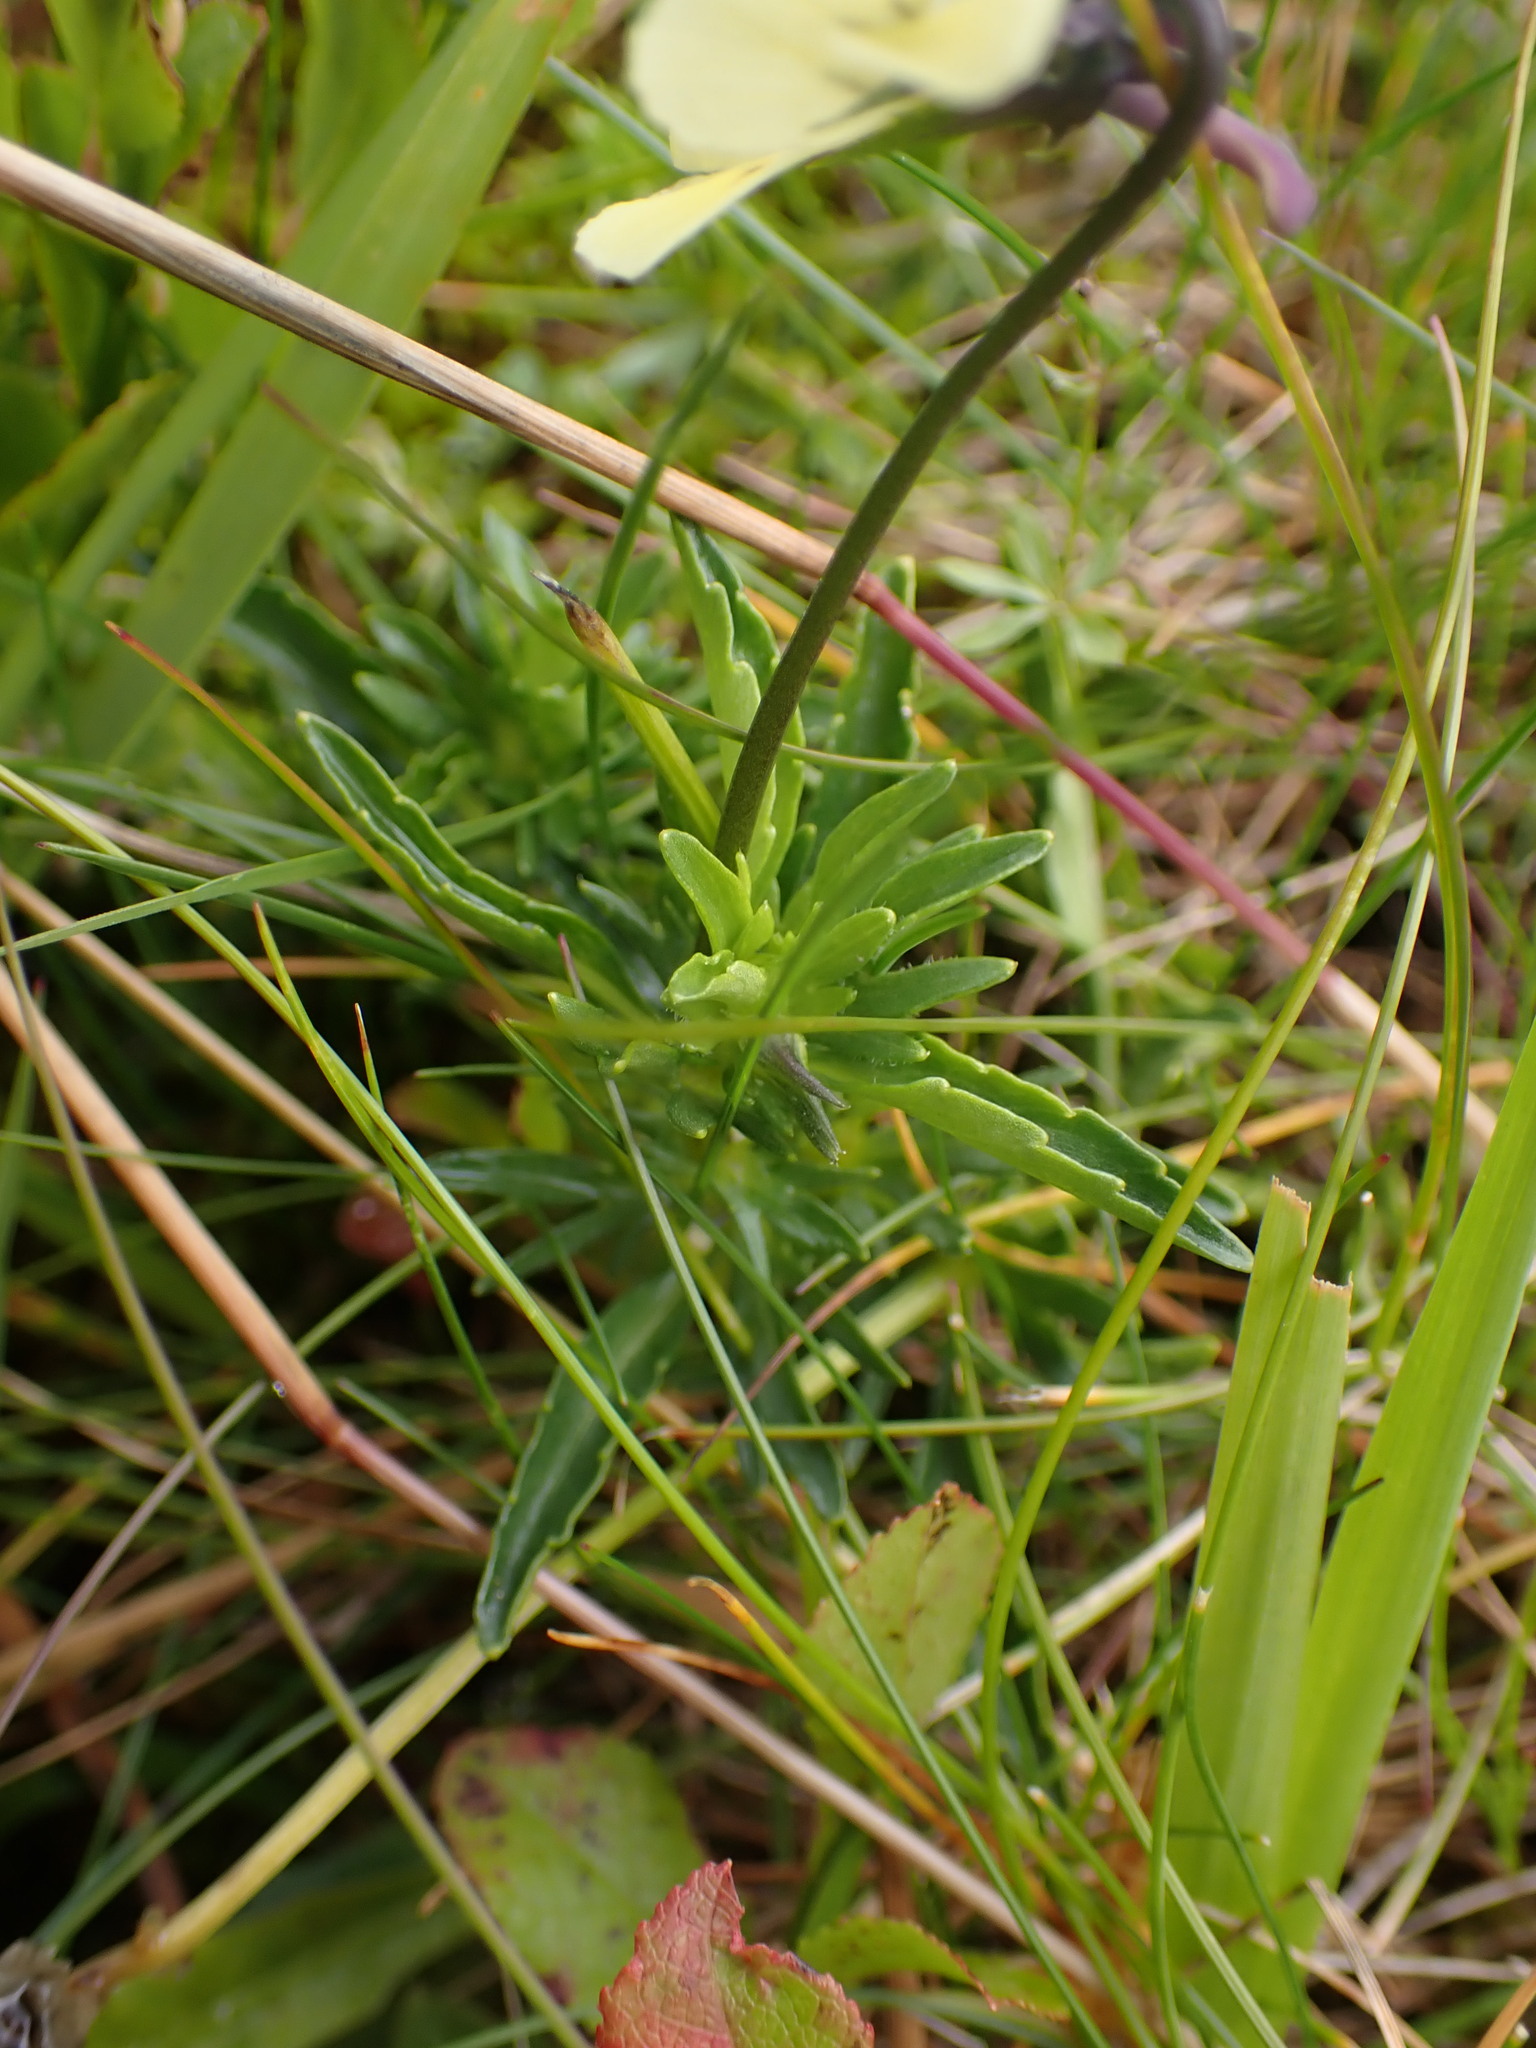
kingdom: Plantae
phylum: Tracheophyta
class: Magnoliopsida
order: Malpighiales
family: Violaceae
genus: Viola
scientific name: Viola lutea
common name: Mountain pansy
